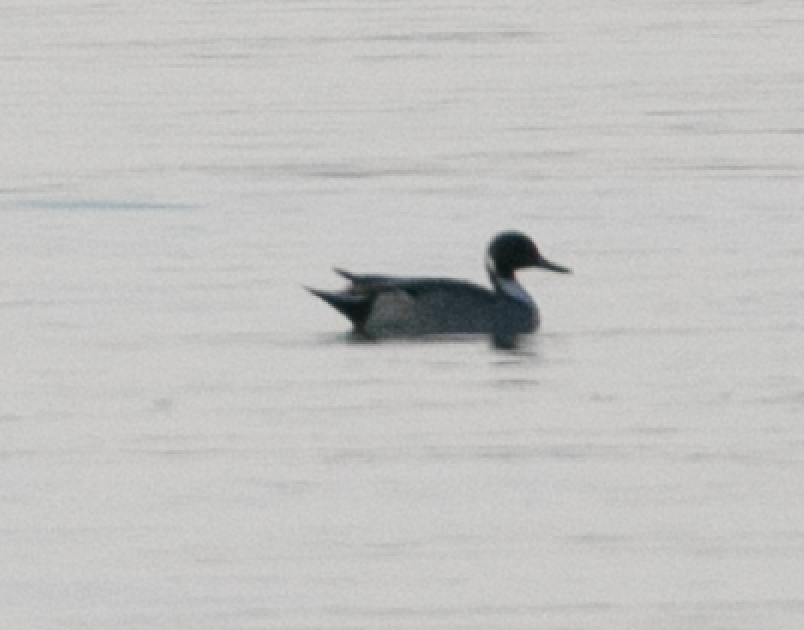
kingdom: Animalia
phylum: Chordata
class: Aves
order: Anseriformes
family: Anatidae
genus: Anas
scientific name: Anas acuta
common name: Northern pintail
